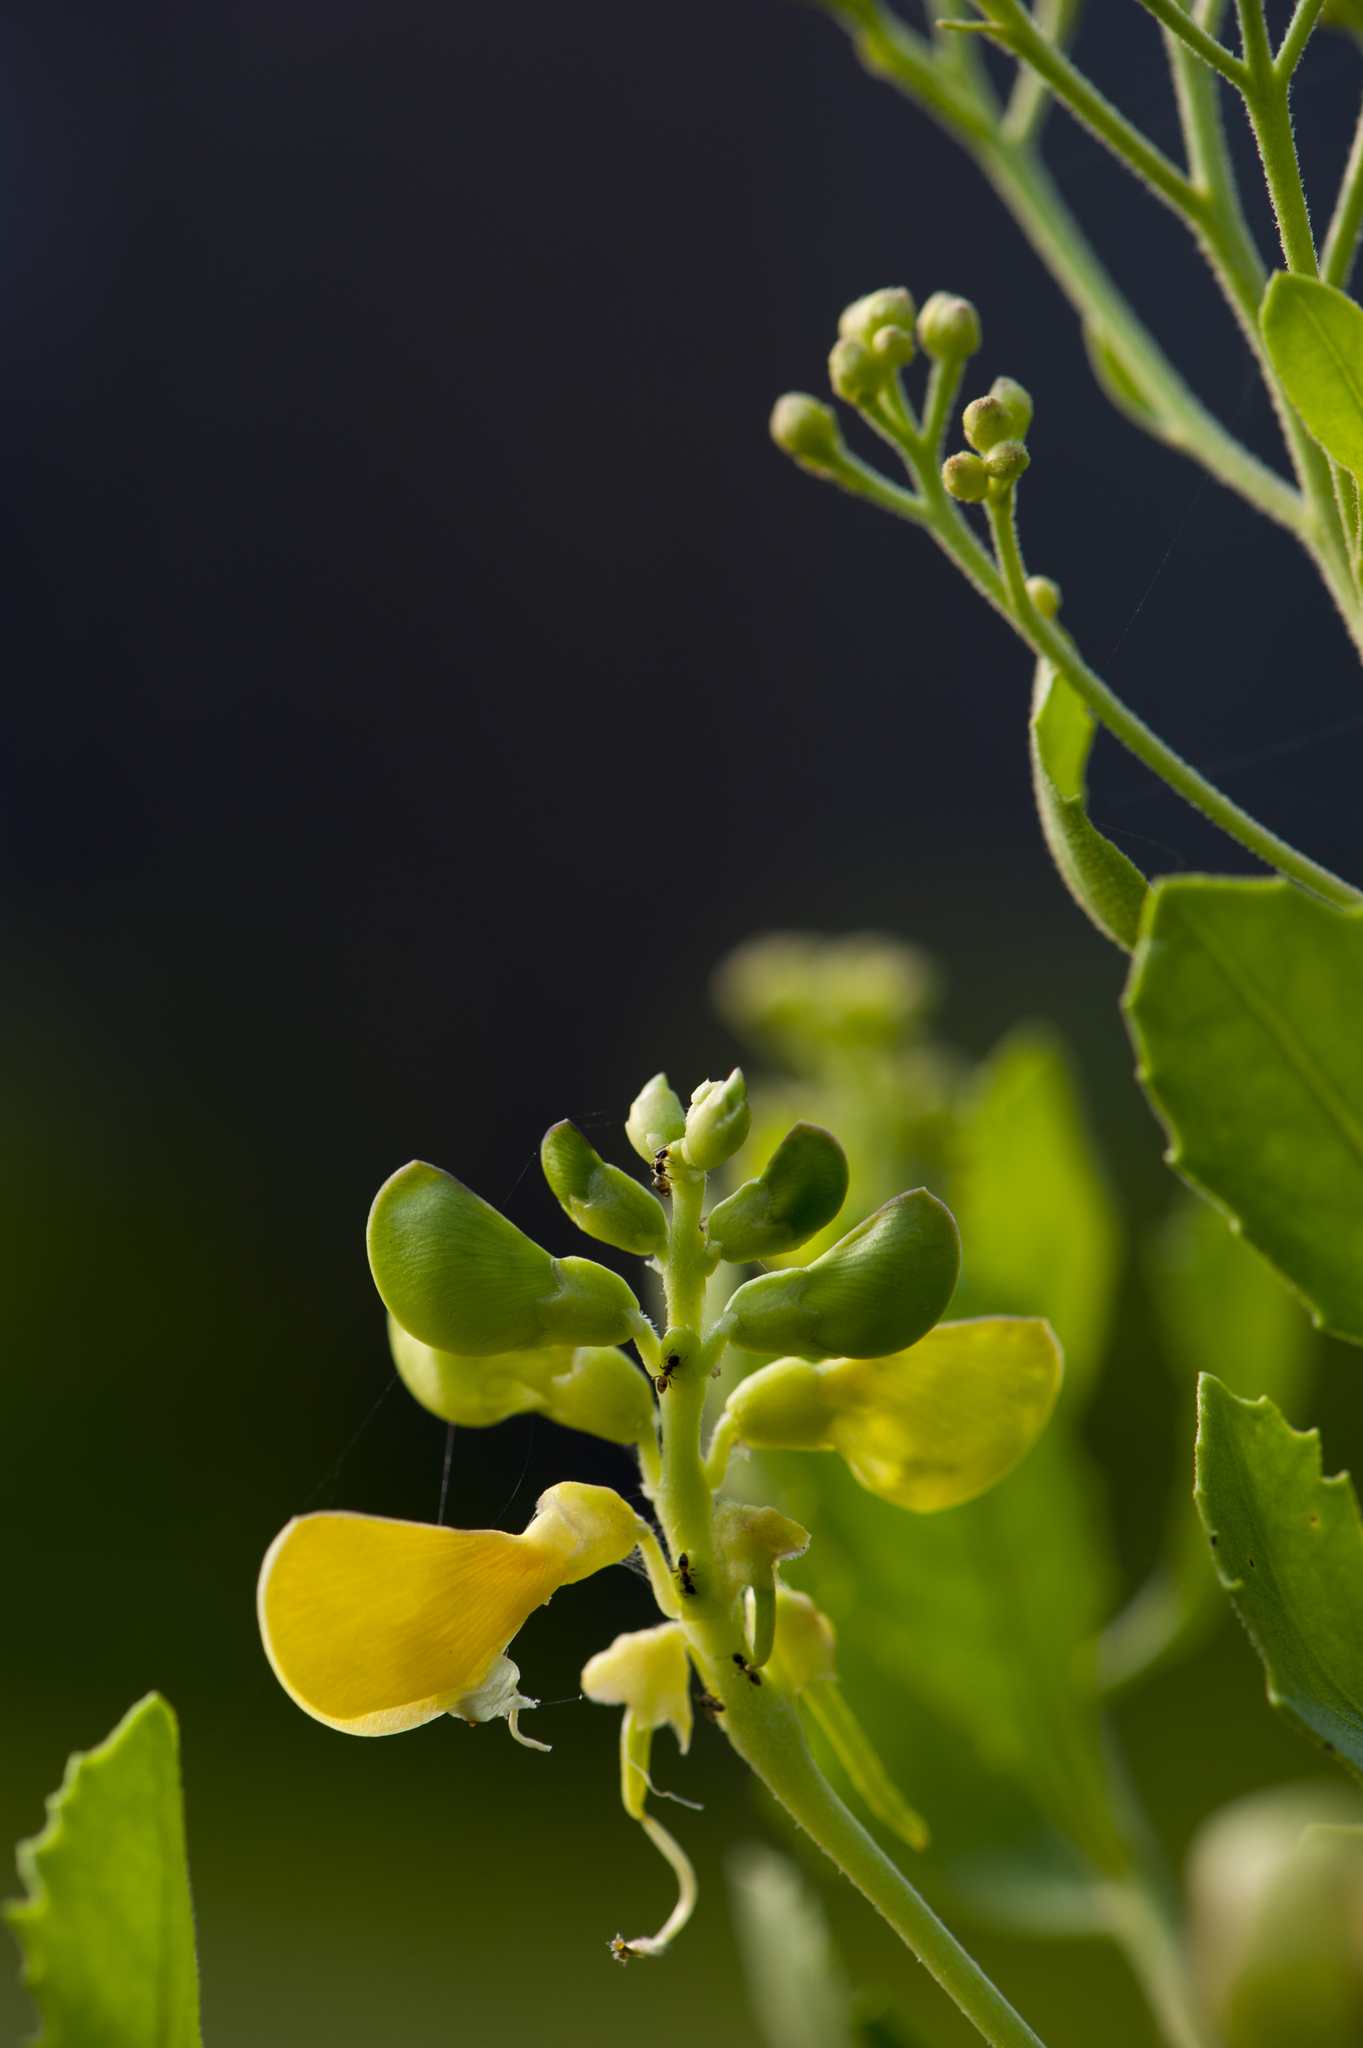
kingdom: Plantae
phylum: Tracheophyta
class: Magnoliopsida
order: Fabales
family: Fabaceae
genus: Vigna
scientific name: Vigna marina
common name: Dune-bean
